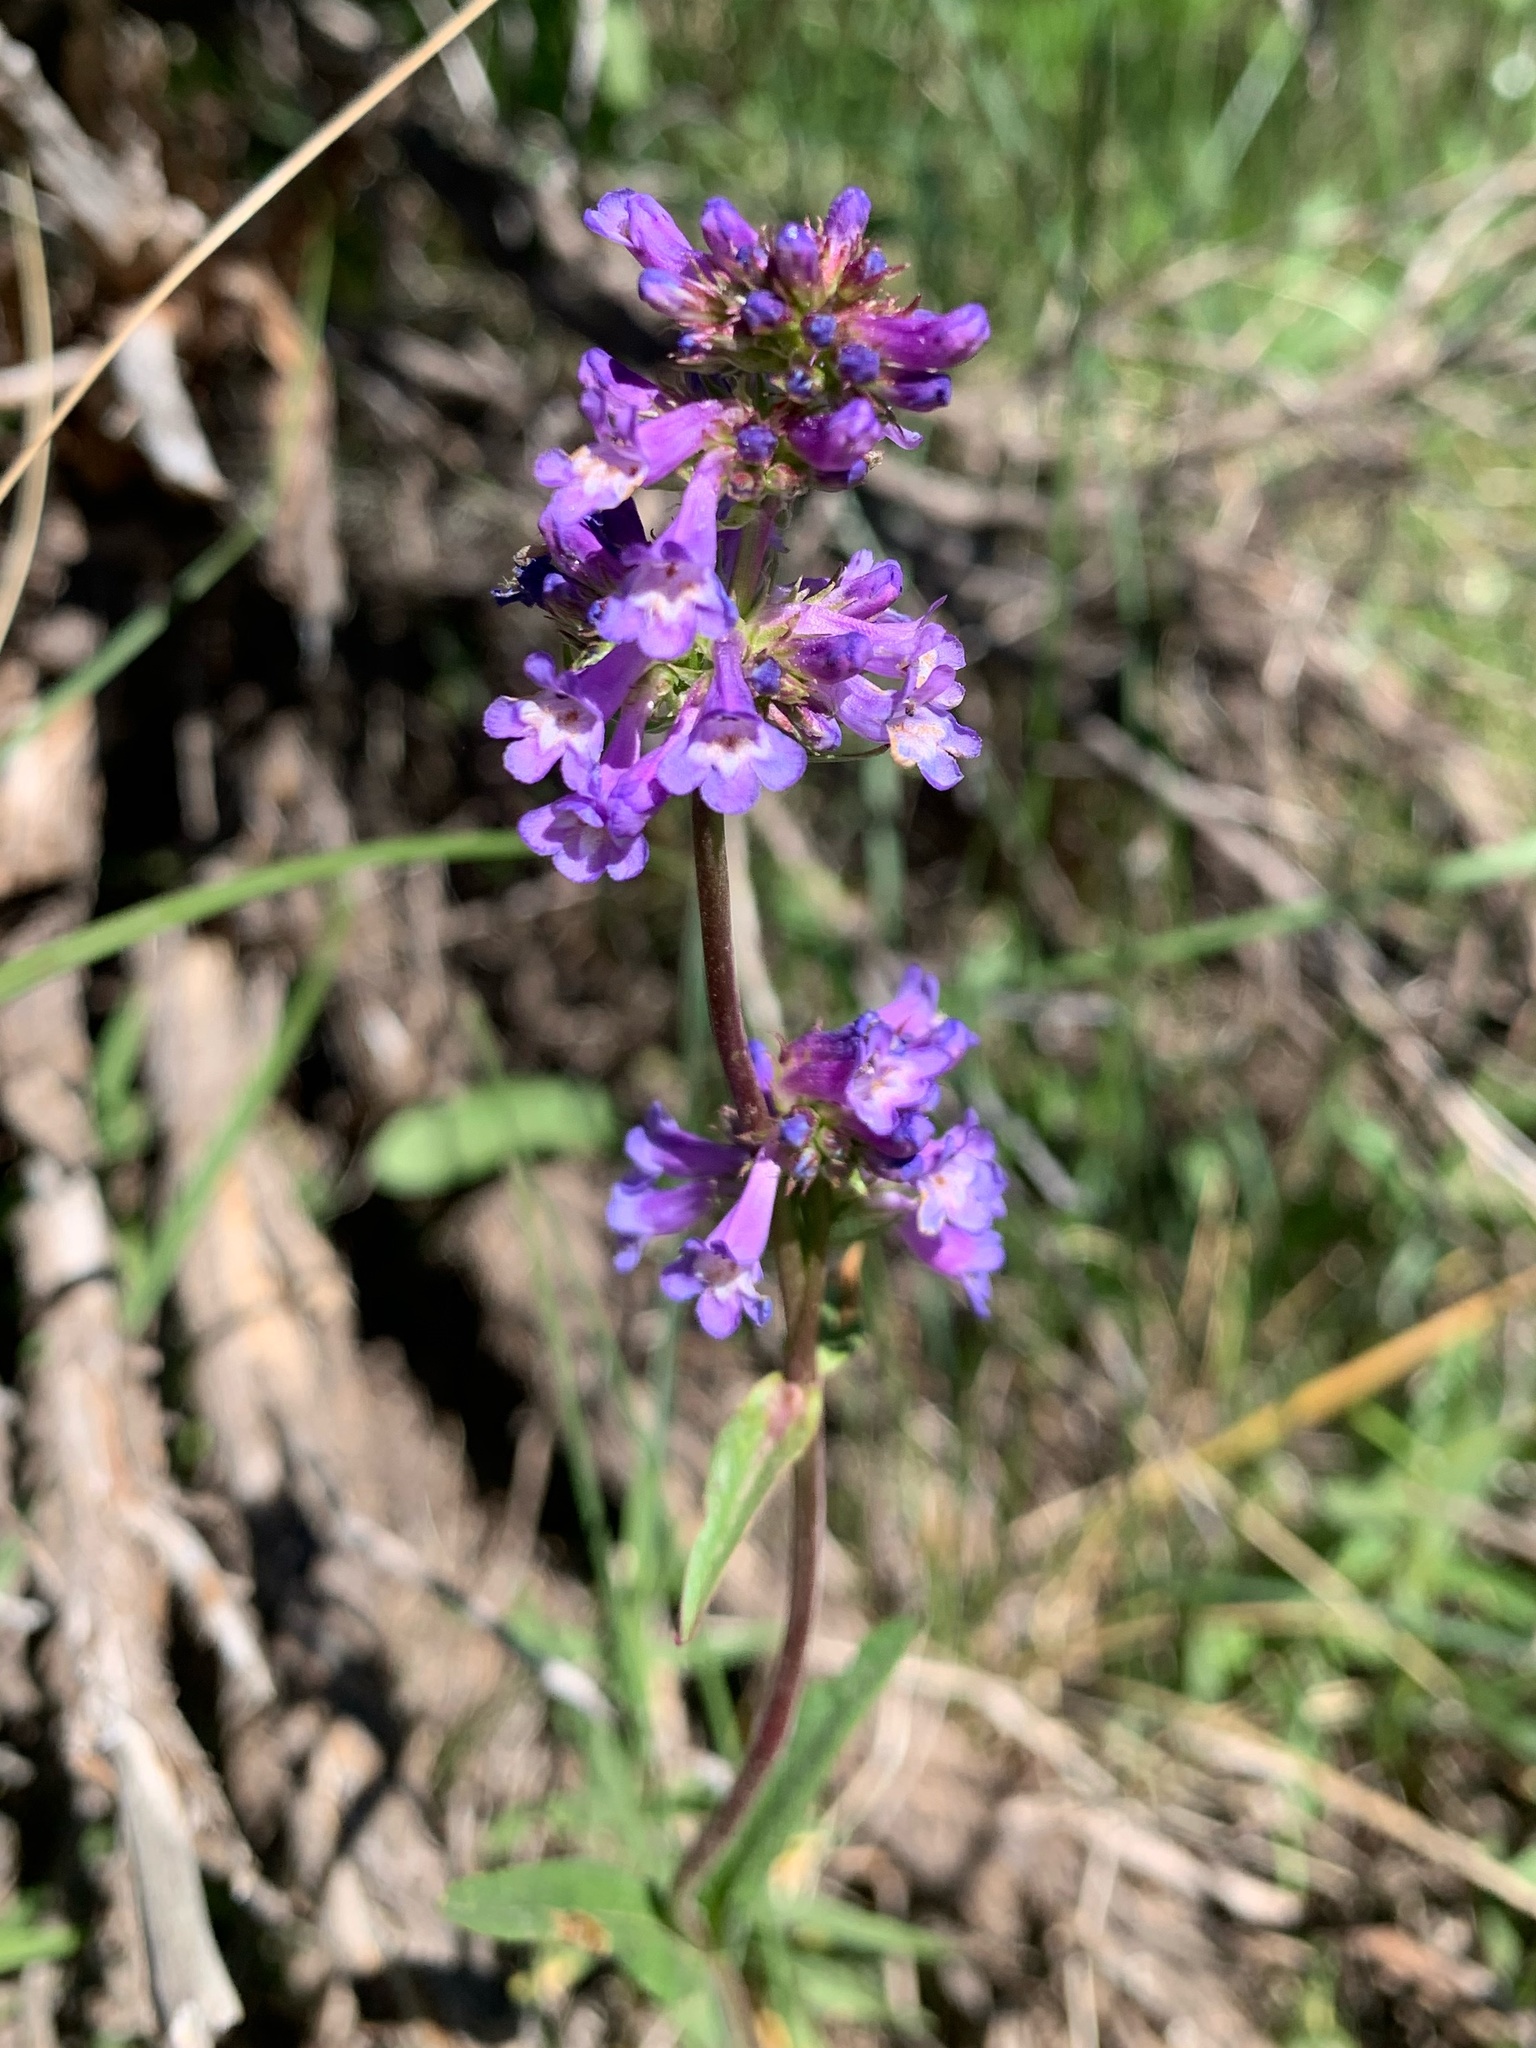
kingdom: Plantae
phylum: Tracheophyta
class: Magnoliopsida
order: Lamiales
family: Plantaginaceae
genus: Penstemon
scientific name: Penstemon procerus
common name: Small-flower penstemon
